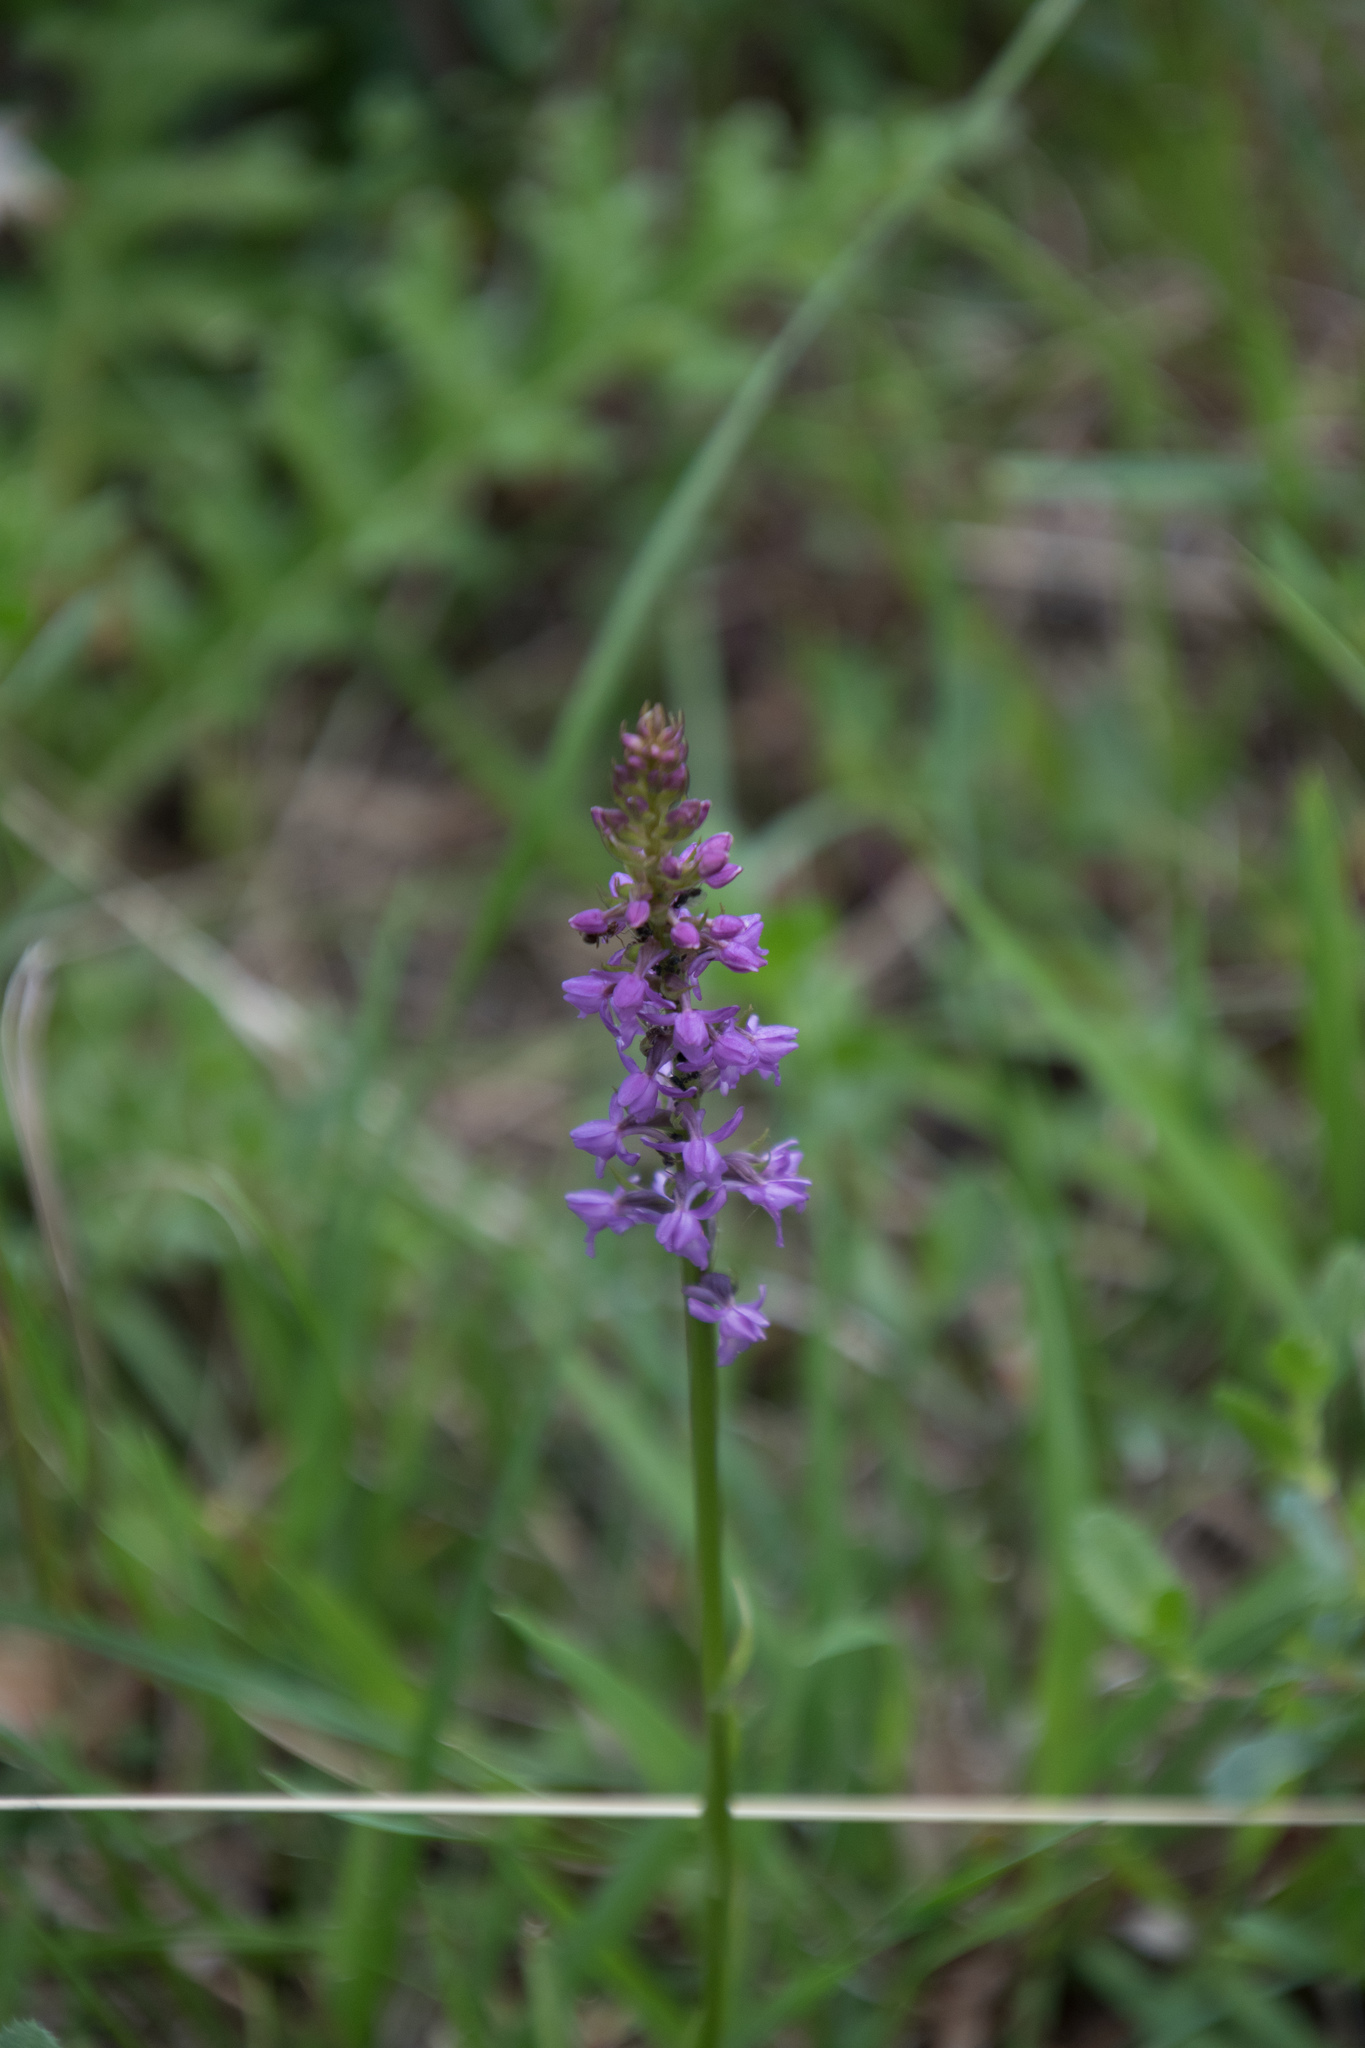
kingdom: Plantae
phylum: Tracheophyta
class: Liliopsida
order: Asparagales
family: Orchidaceae
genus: Gymnadenia
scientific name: Gymnadenia odoratissima
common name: Scented gymnadenia
